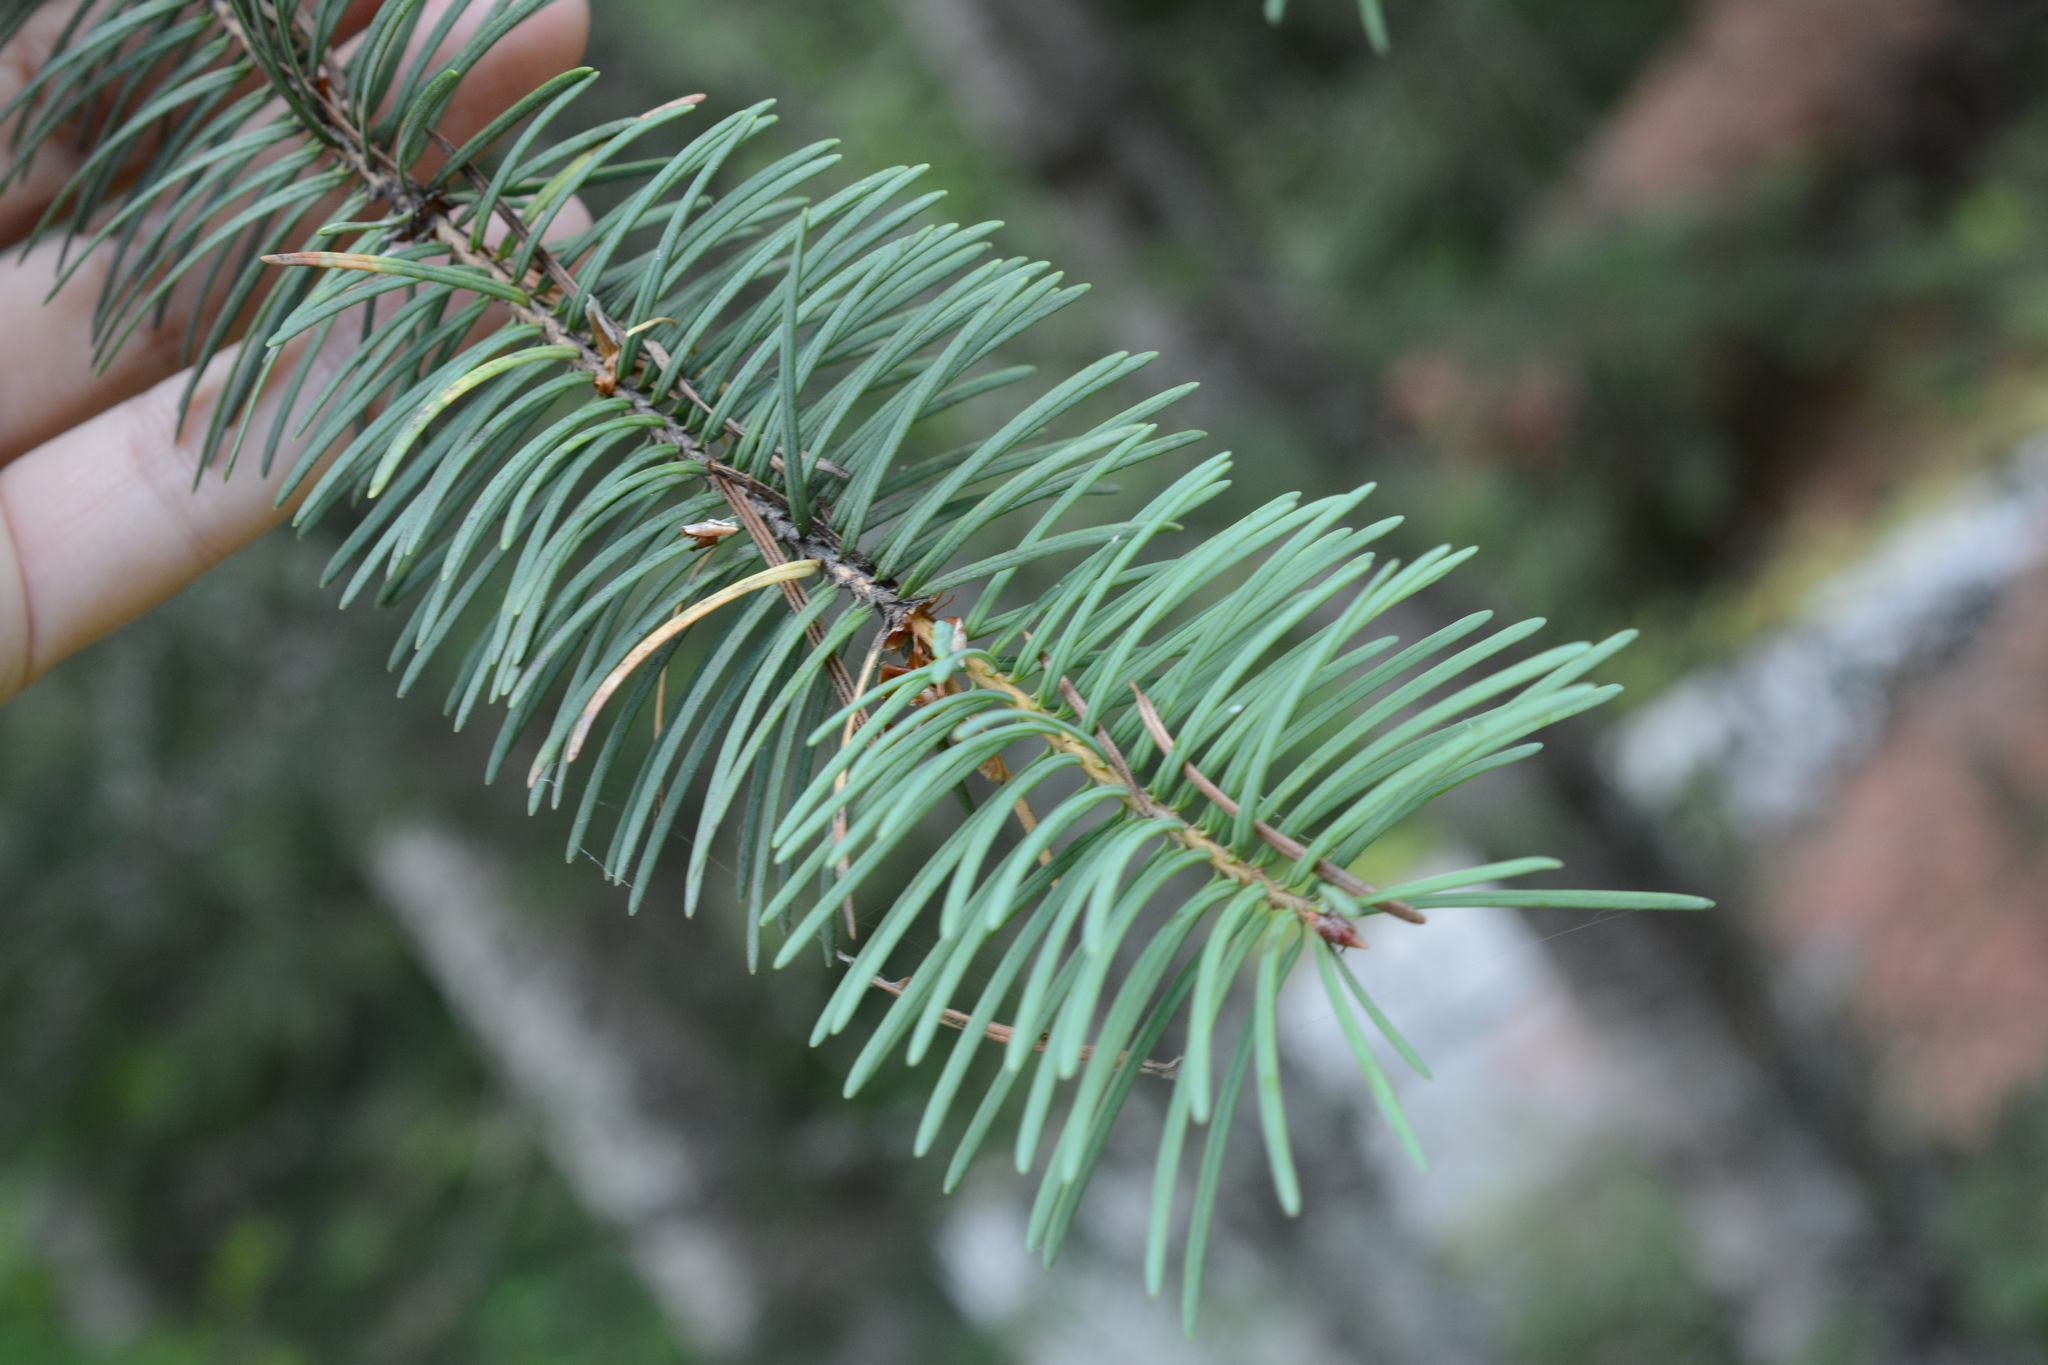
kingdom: Plantae
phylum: Tracheophyta
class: Pinopsida
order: Pinales
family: Pinaceae
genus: Pseudotsuga
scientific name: Pseudotsuga menziesii
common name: Douglas fir
